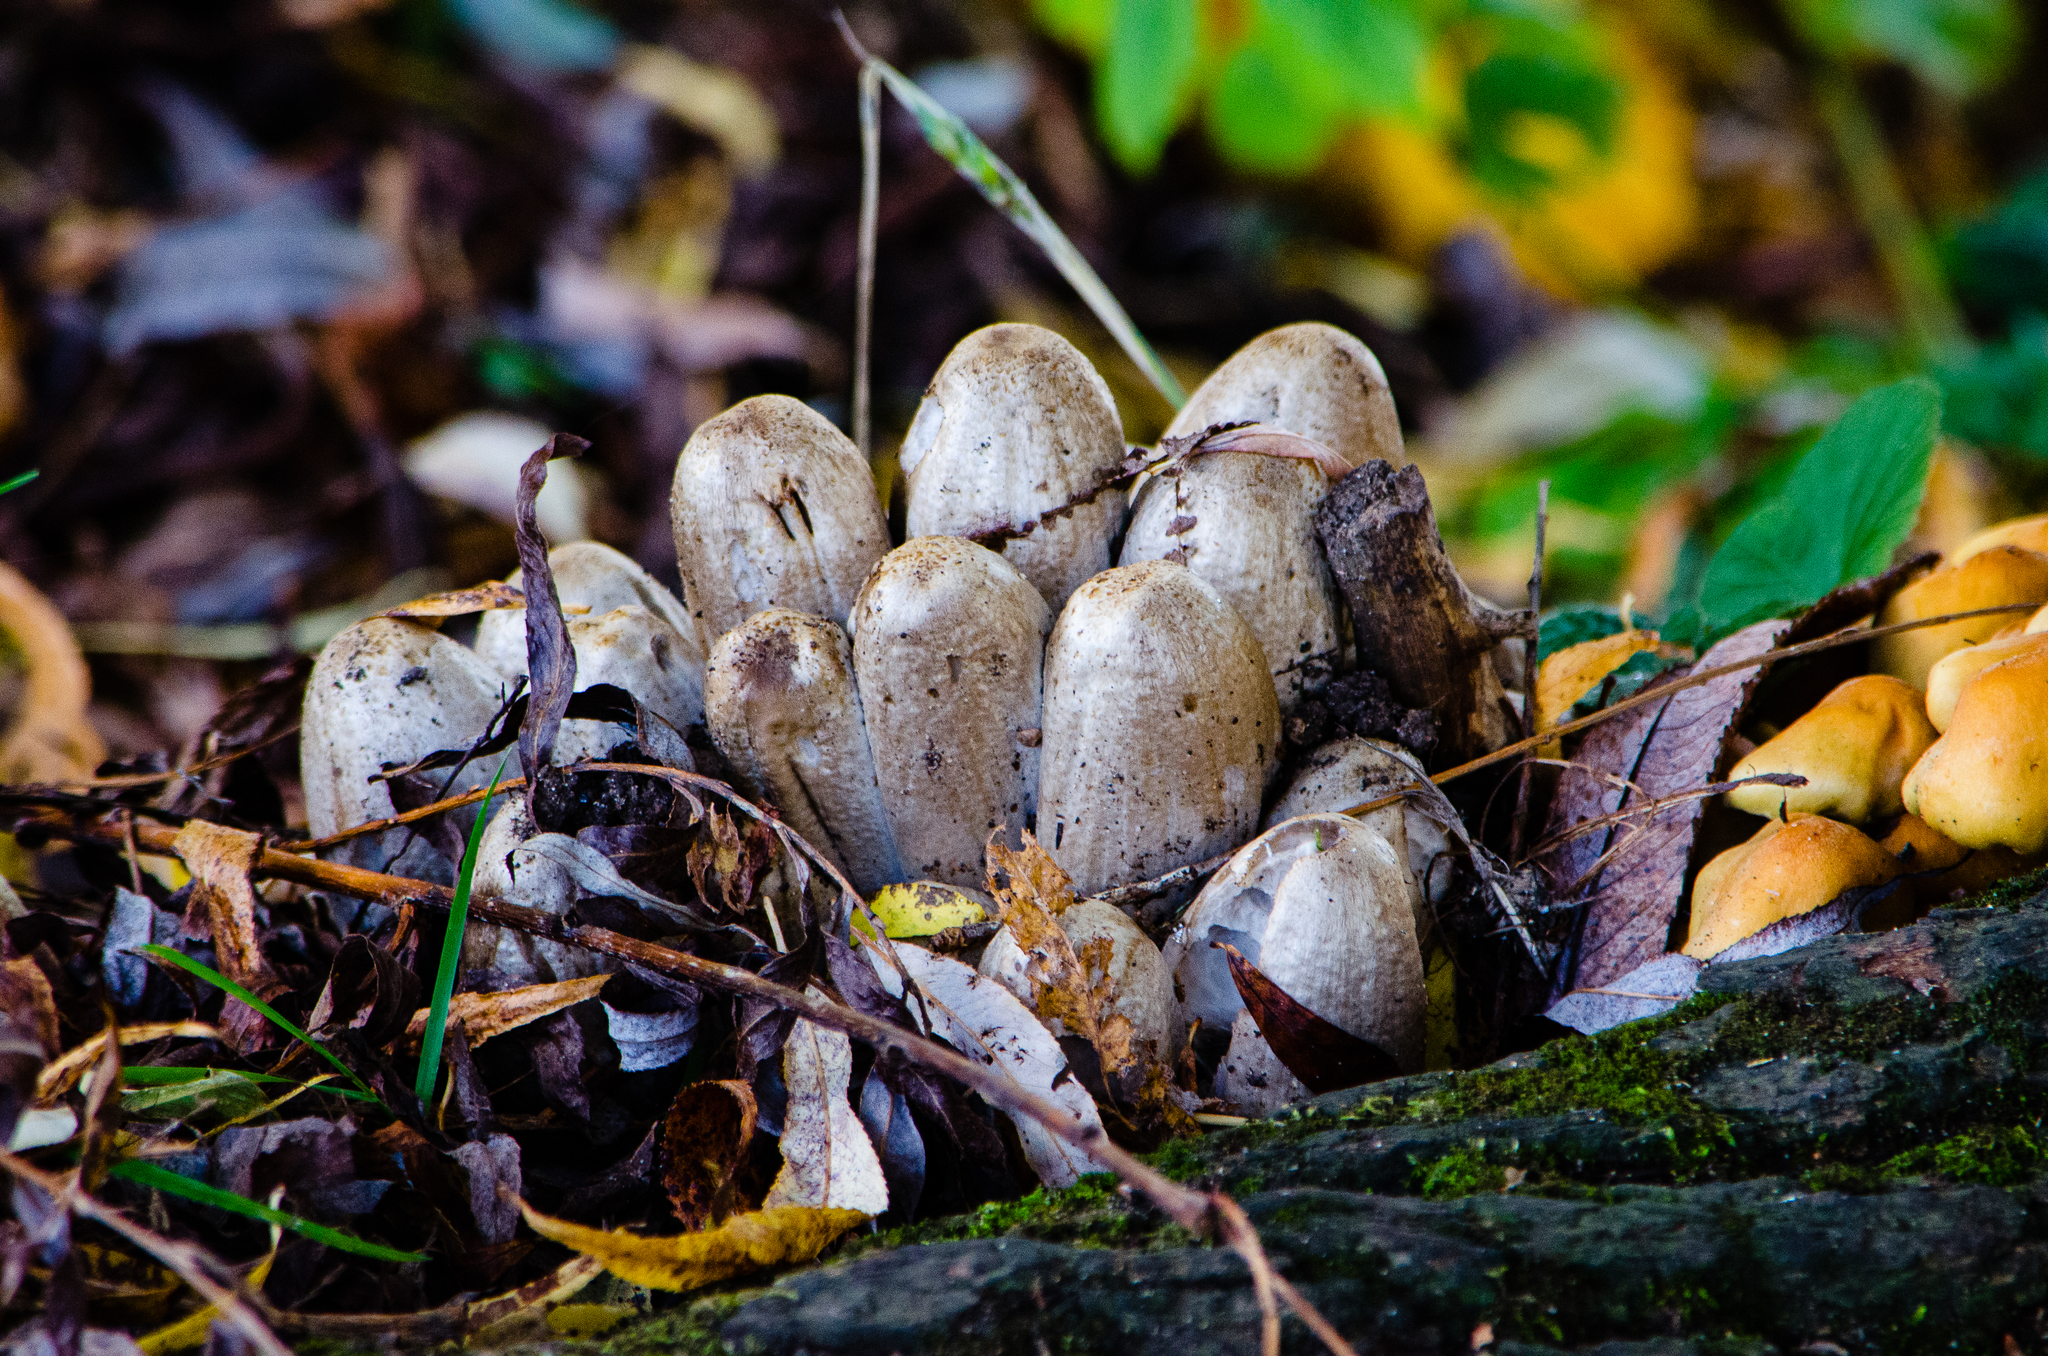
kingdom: Fungi
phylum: Basidiomycota
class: Agaricomycetes
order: Agaricales
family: Psathyrellaceae
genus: Coprinopsis
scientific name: Coprinopsis atramentaria
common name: Common ink-cap
